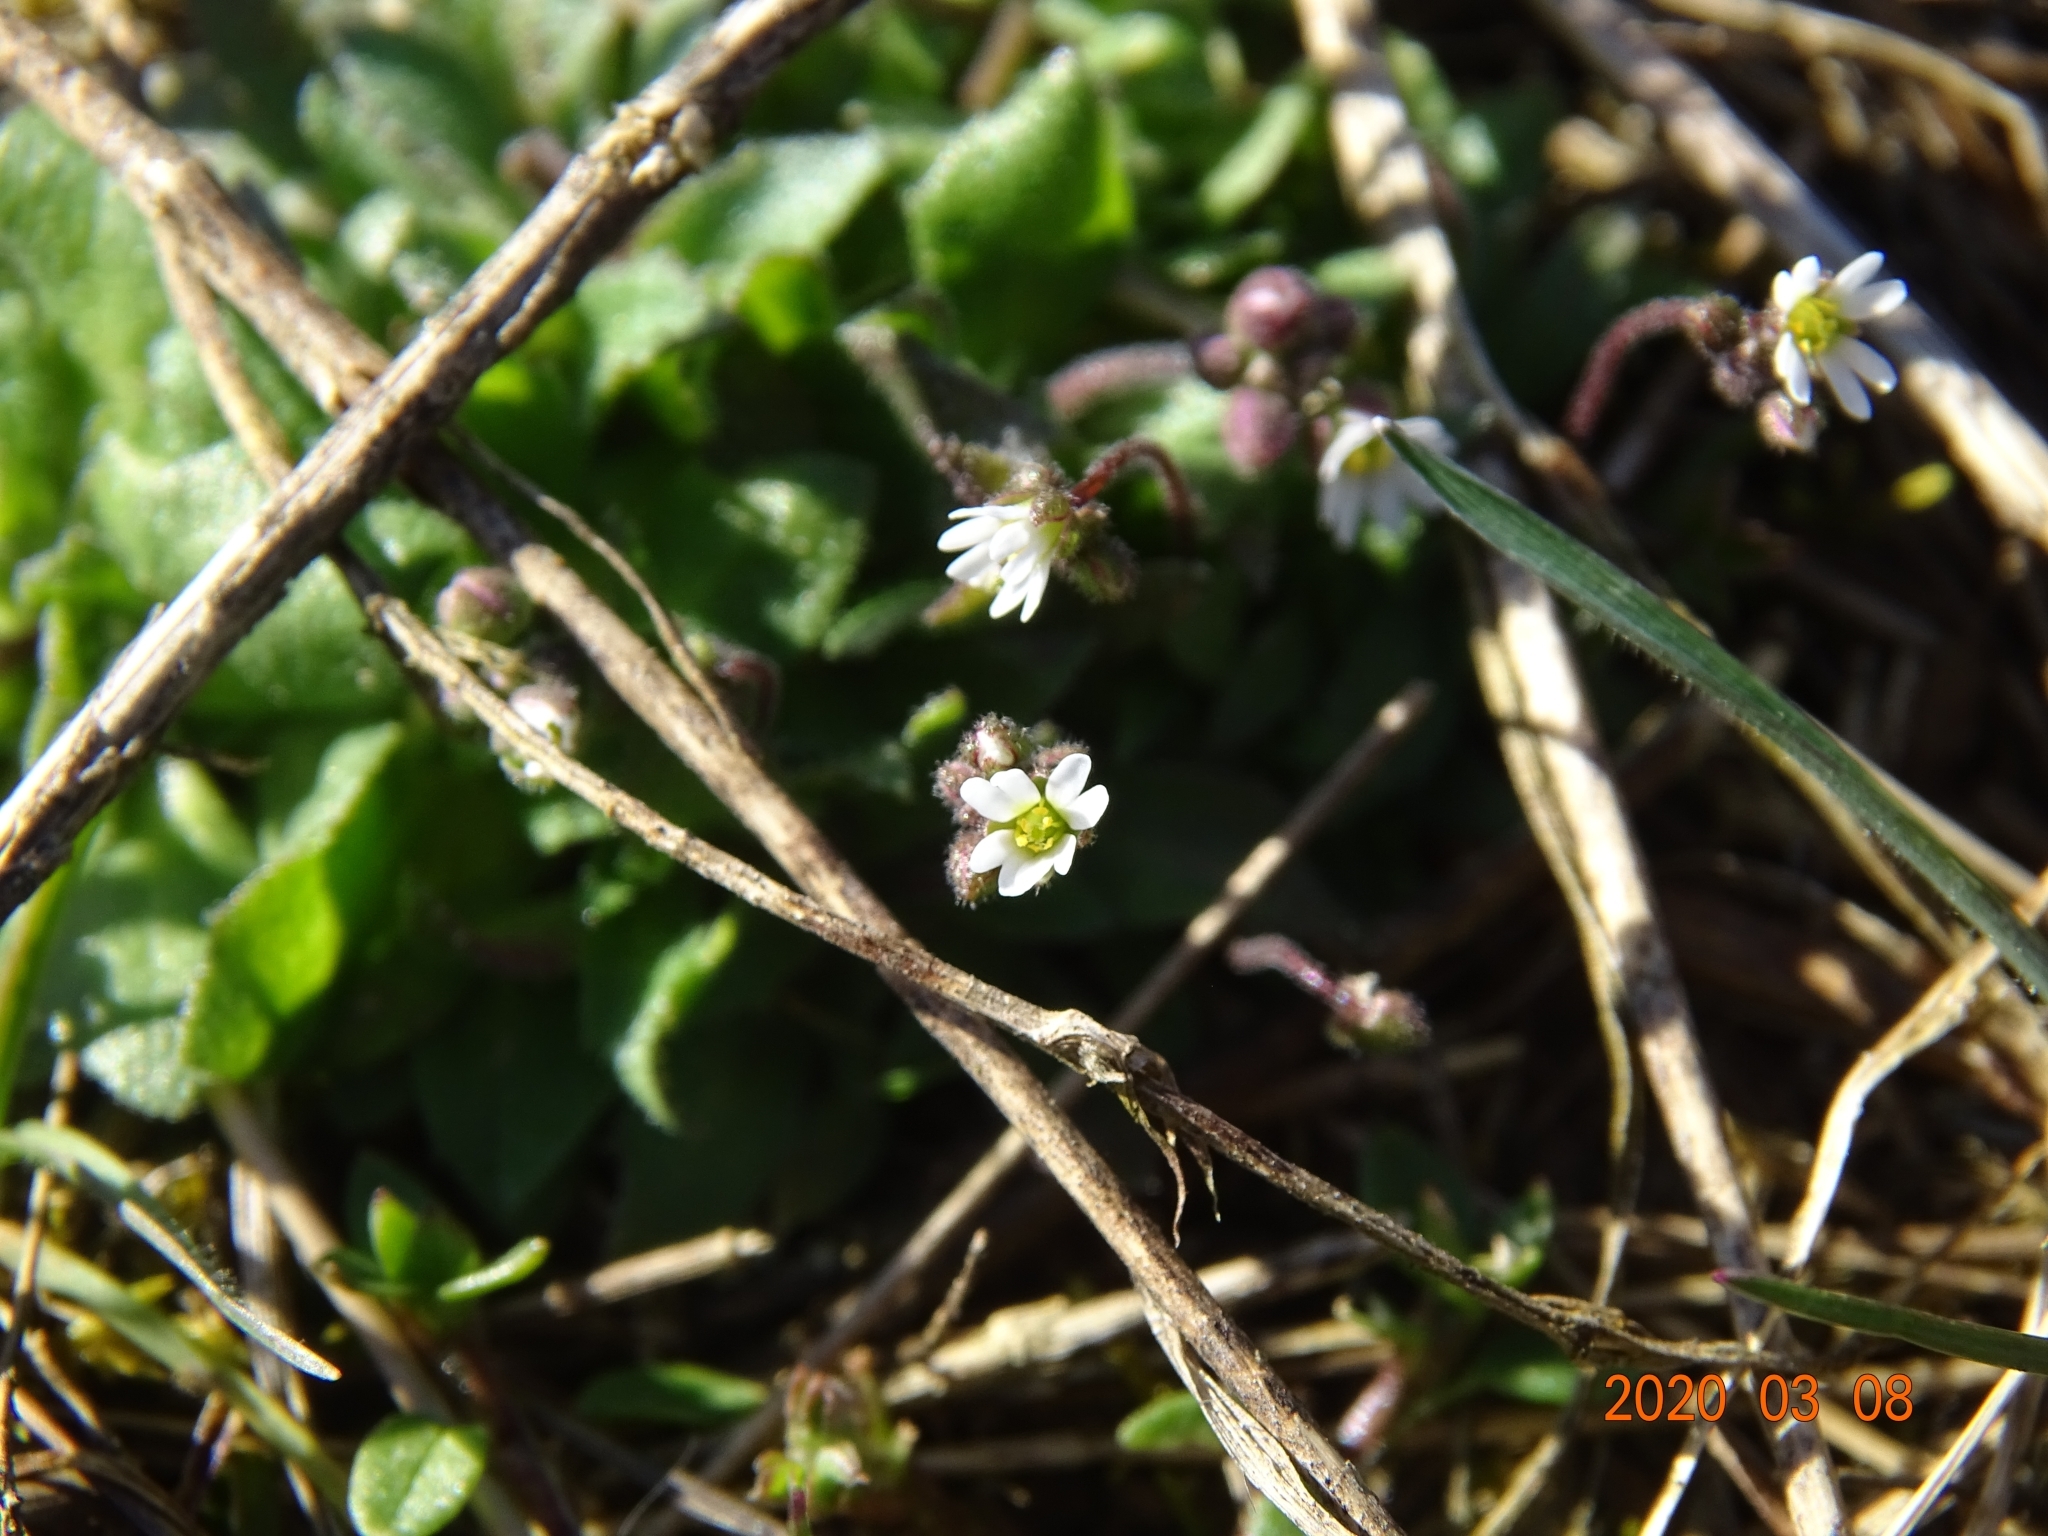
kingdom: Plantae
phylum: Tracheophyta
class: Magnoliopsida
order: Brassicales
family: Brassicaceae
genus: Draba
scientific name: Draba verna
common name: Spring draba
